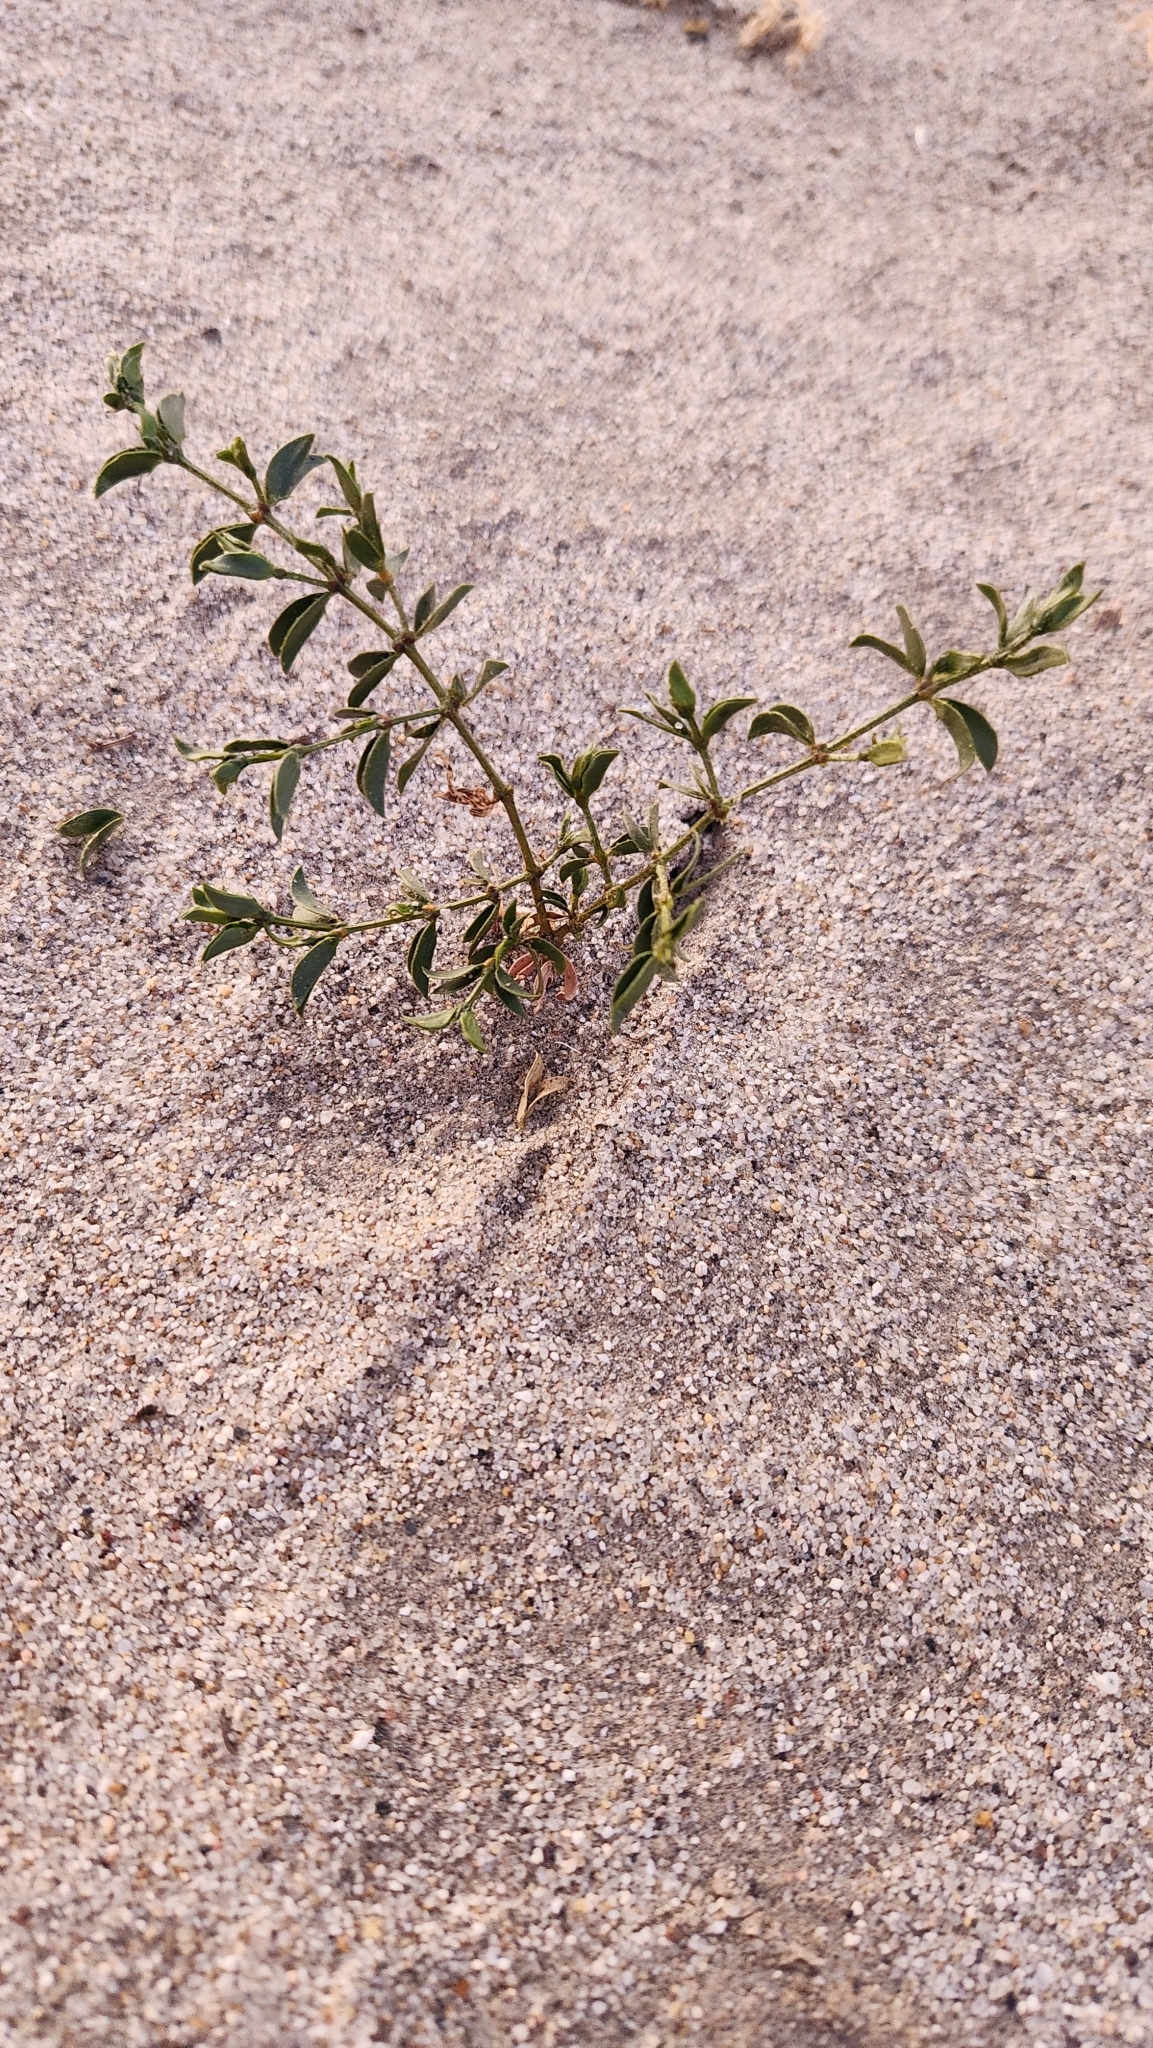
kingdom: Plantae
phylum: Tracheophyta
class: Magnoliopsida
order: Zygophyllales
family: Zygophyllaceae
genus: Larrea
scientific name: Larrea tridentata
